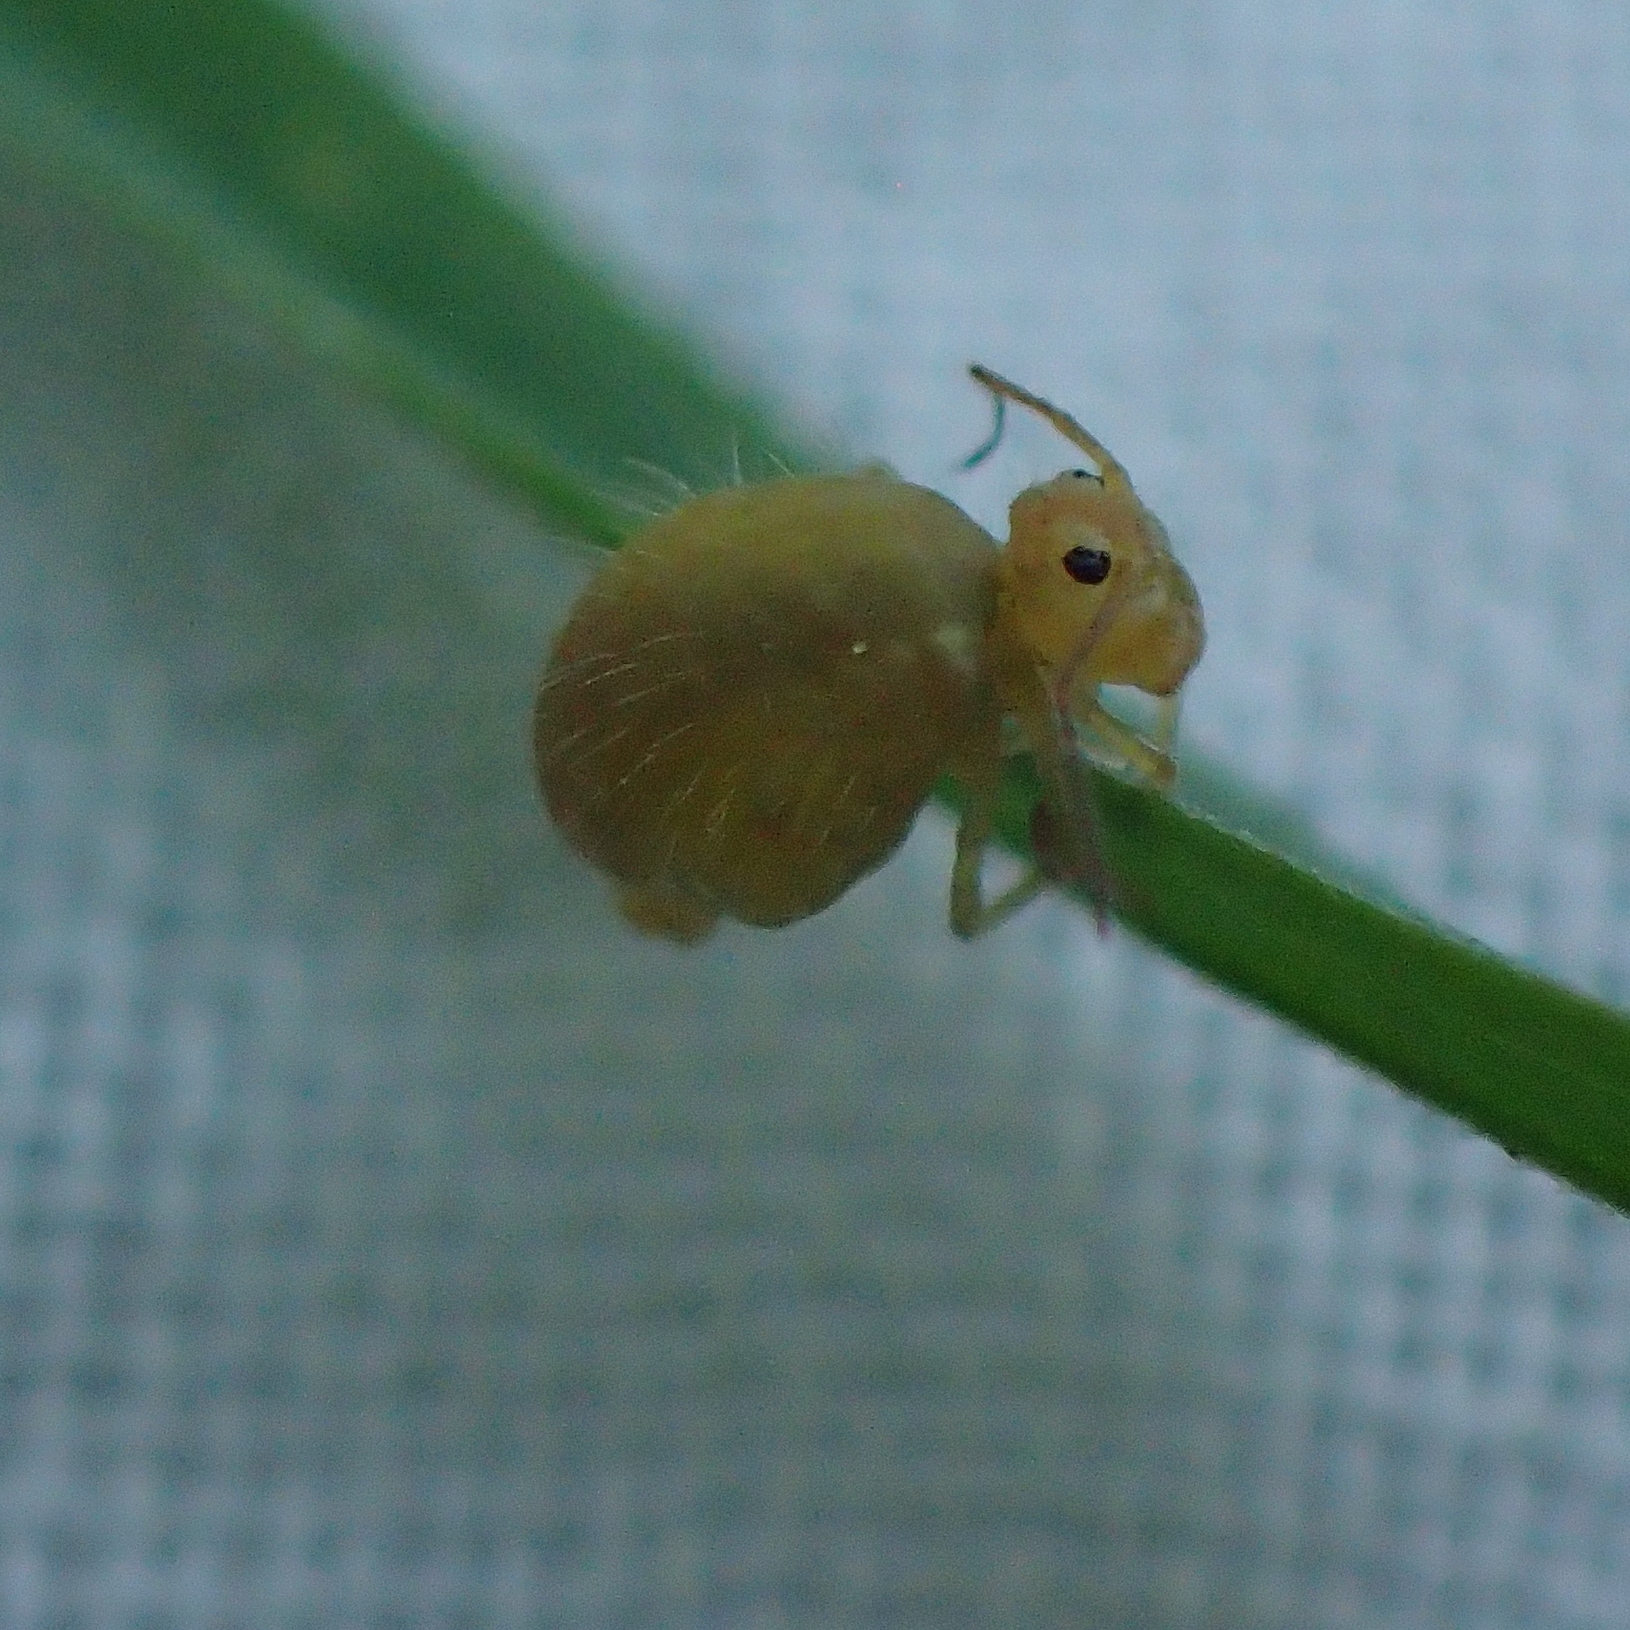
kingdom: Animalia
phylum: Arthropoda
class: Collembola
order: Symphypleona
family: Bourletiellidae
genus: Heterosminthurus
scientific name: Heterosminthurus insignis
